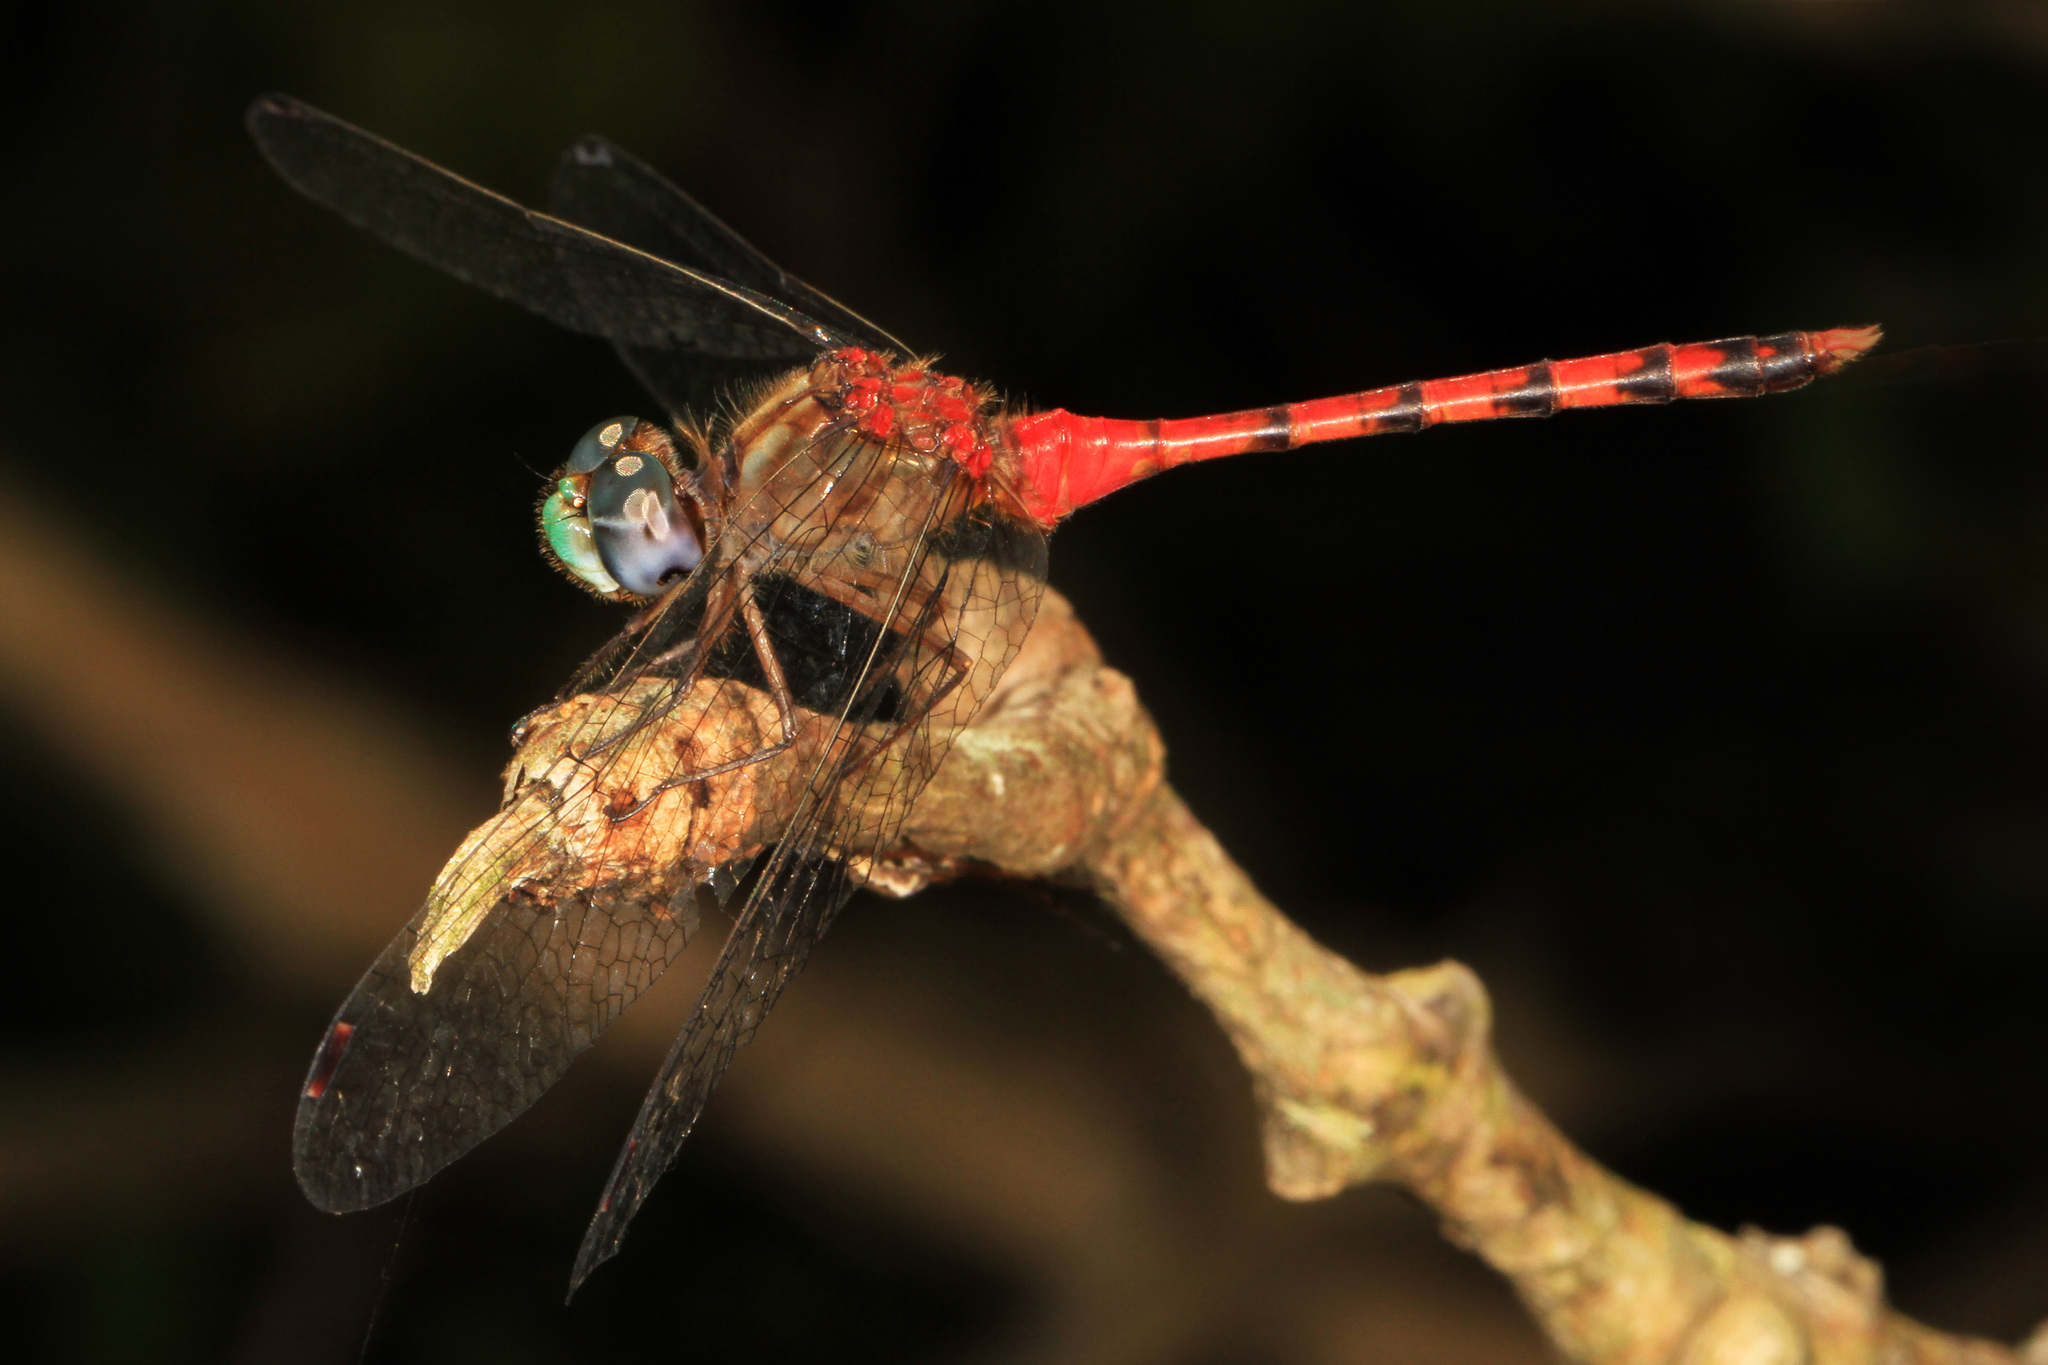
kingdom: Animalia
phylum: Arthropoda
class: Insecta
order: Odonata
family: Libellulidae
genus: Sympetrum
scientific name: Sympetrum ambiguum
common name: Blue-faced meadowhawk
